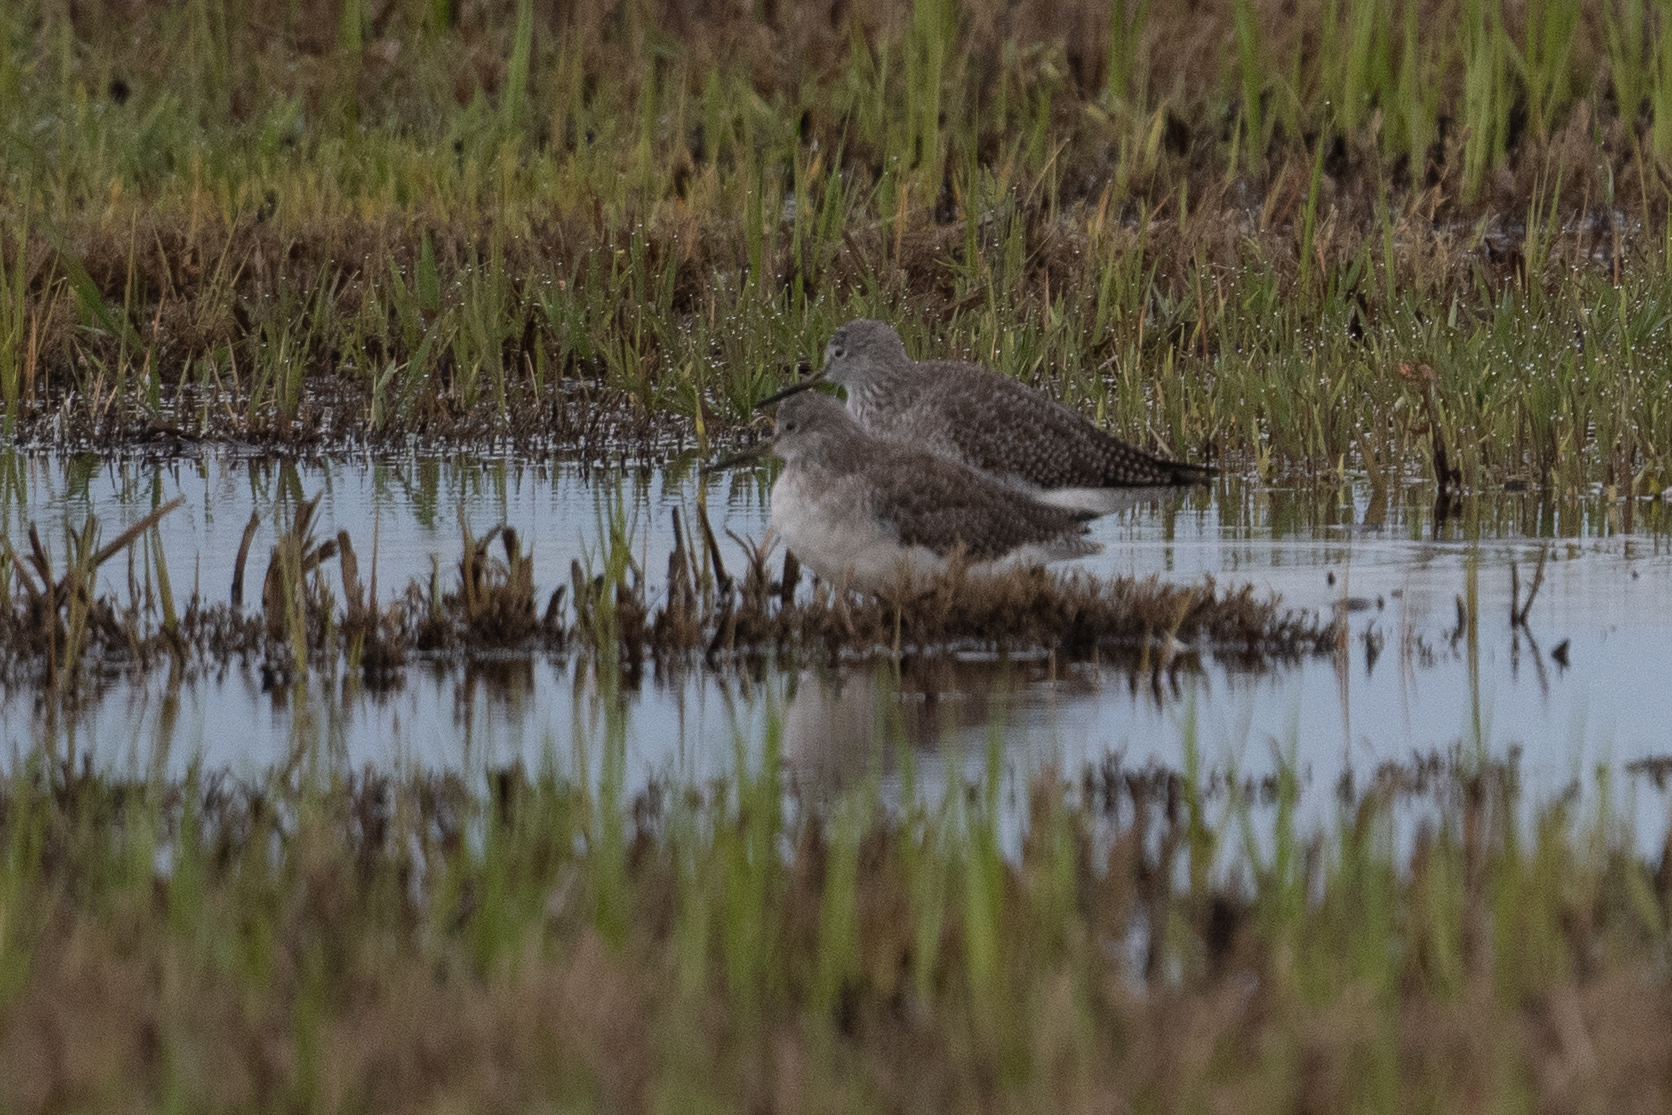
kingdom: Animalia
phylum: Chordata
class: Aves
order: Charadriiformes
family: Scolopacidae
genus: Tringa
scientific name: Tringa melanoleuca
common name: Greater yellowlegs
